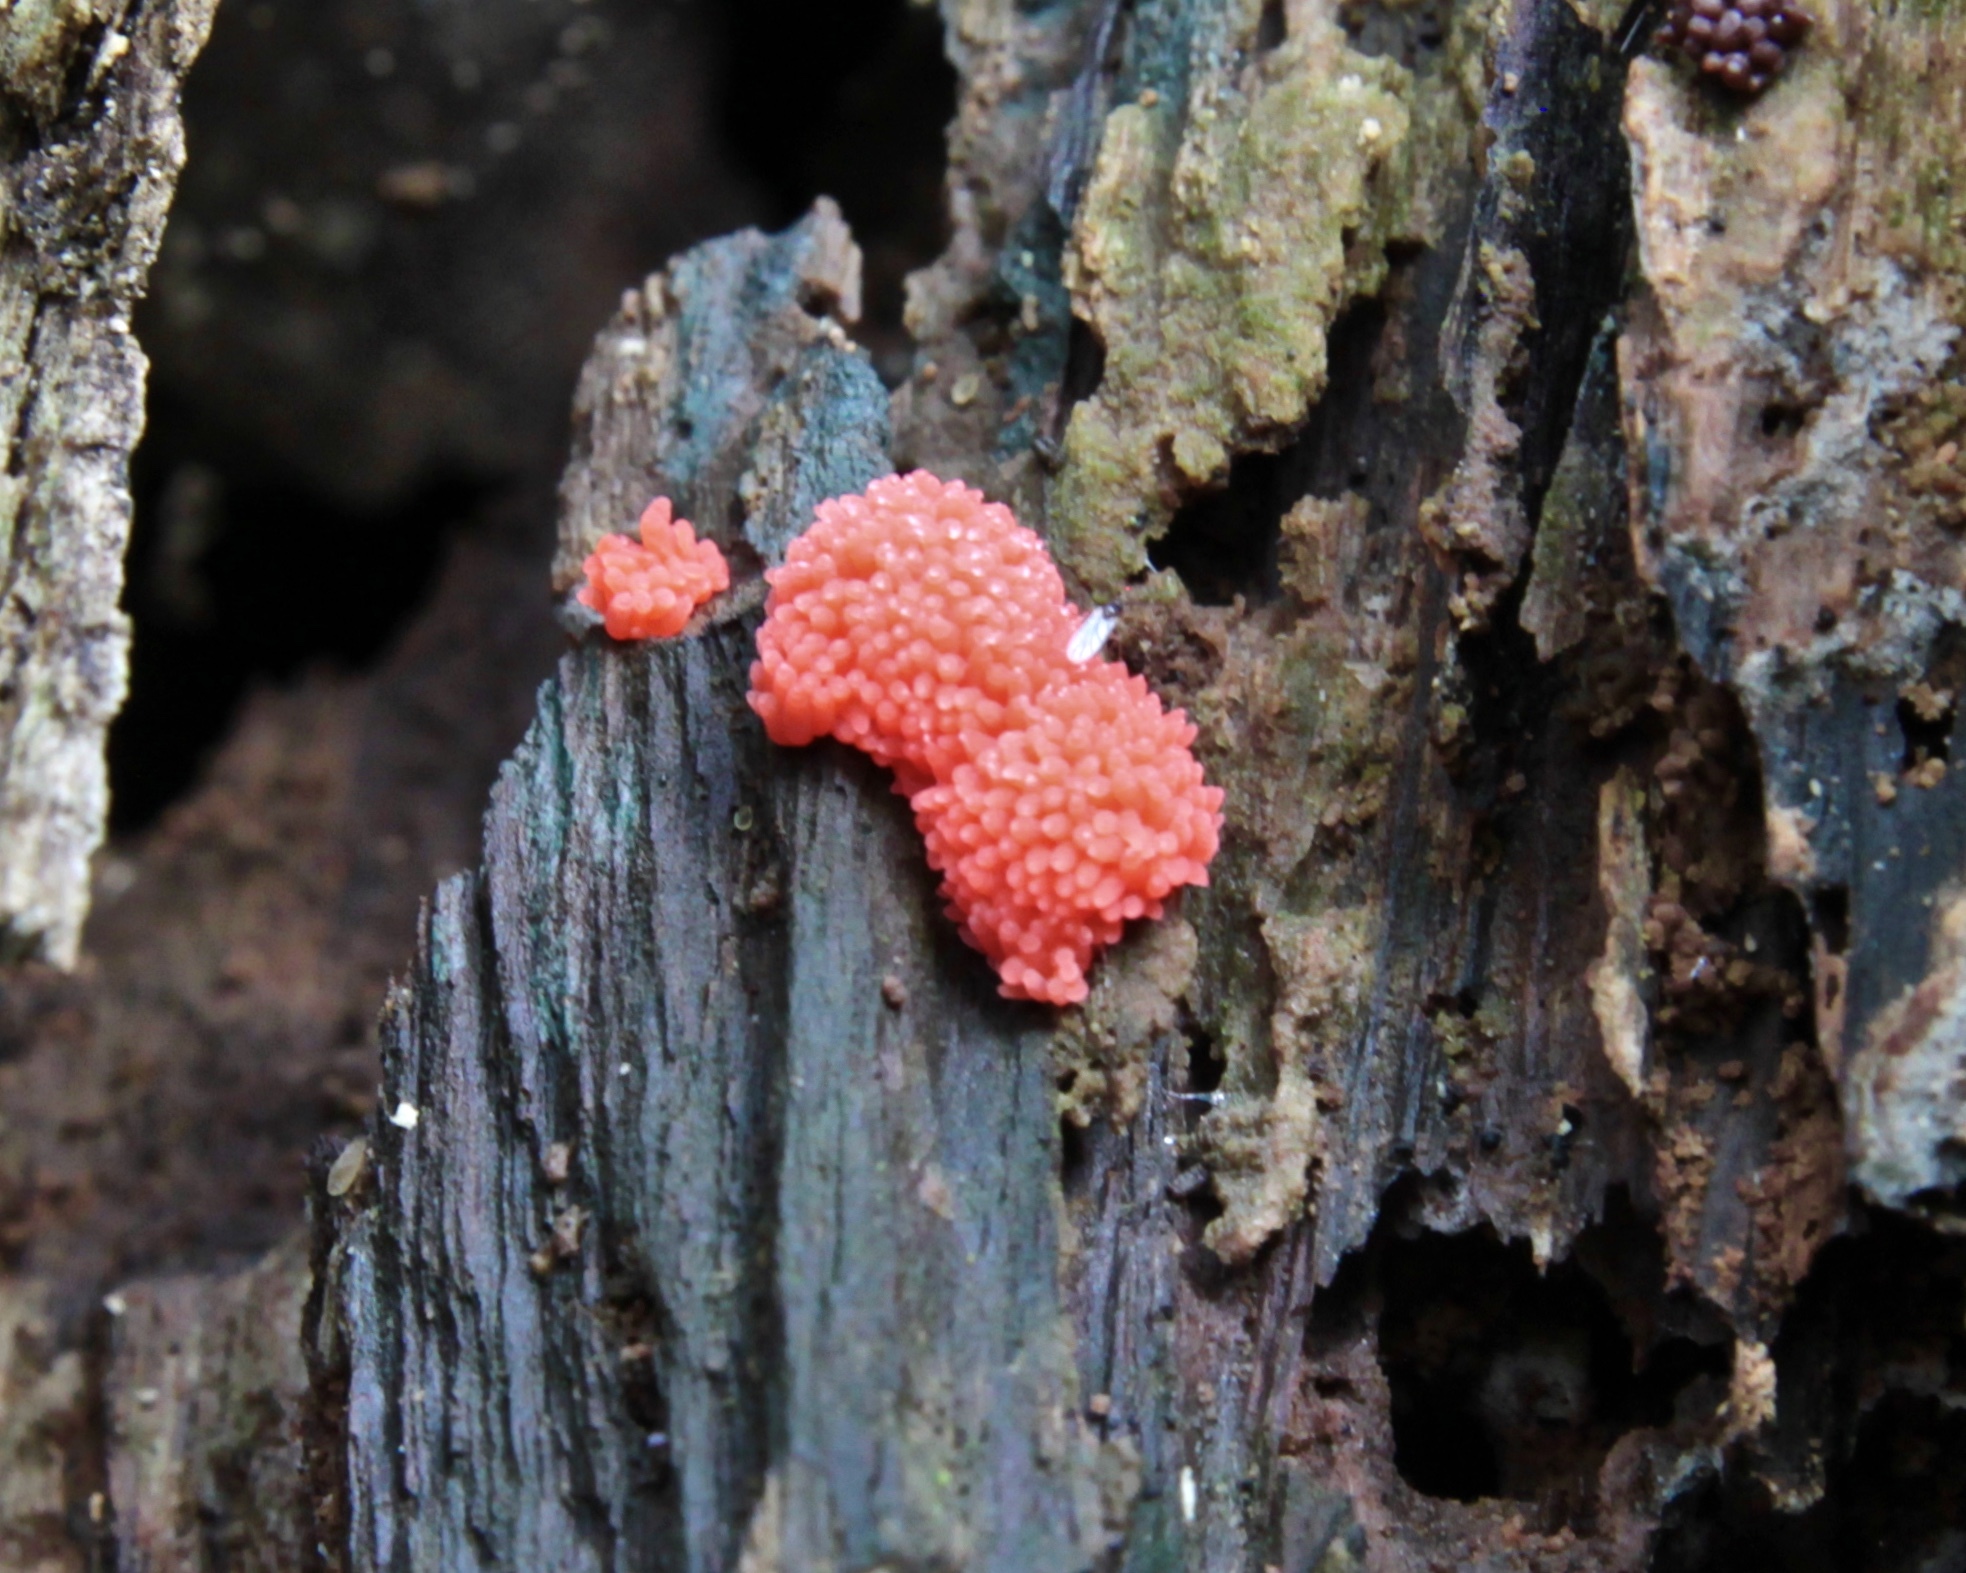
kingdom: Protozoa
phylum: Mycetozoa
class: Myxomycetes
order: Cribrariales
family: Tubiferaceae
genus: Tubifera
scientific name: Tubifera ferruginosa
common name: Red raspberry slime mold
